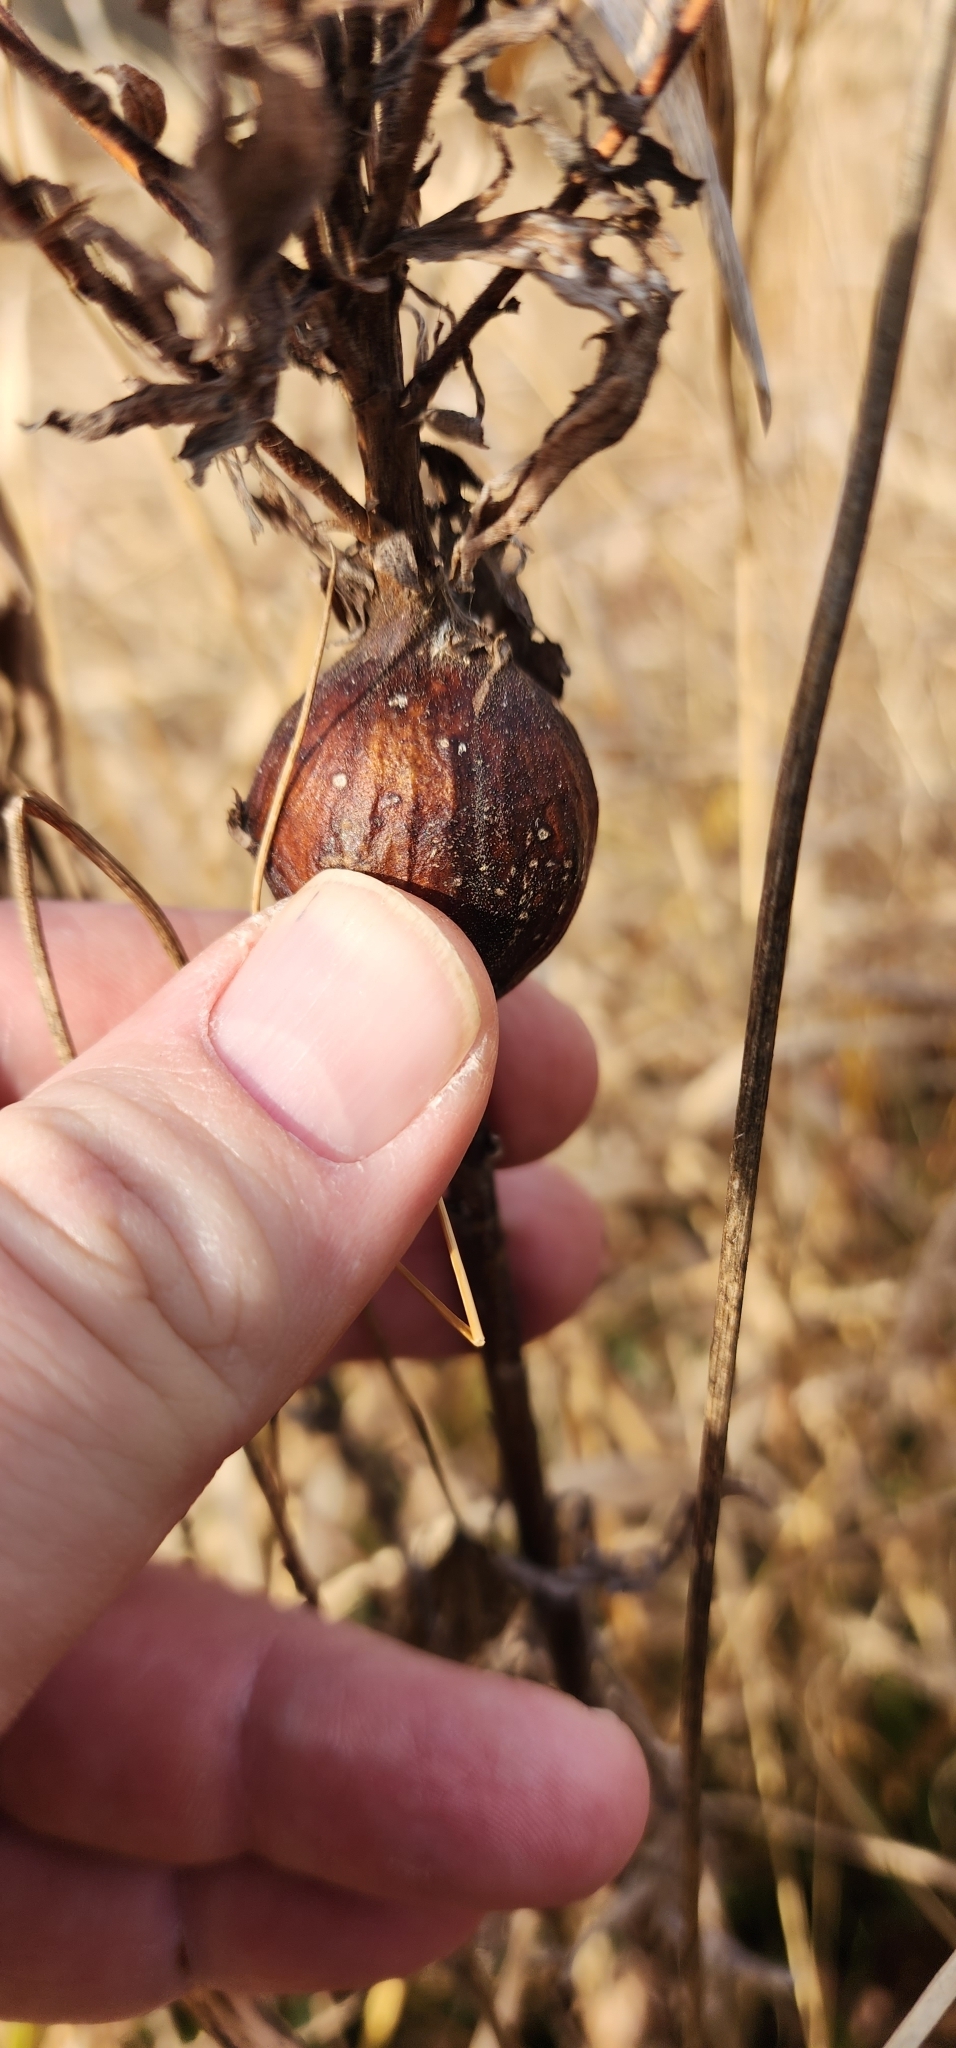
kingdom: Animalia
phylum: Arthropoda
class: Insecta
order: Diptera
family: Tephritidae
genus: Eurosta
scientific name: Eurosta solidaginis
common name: Goldenrod gall fly
